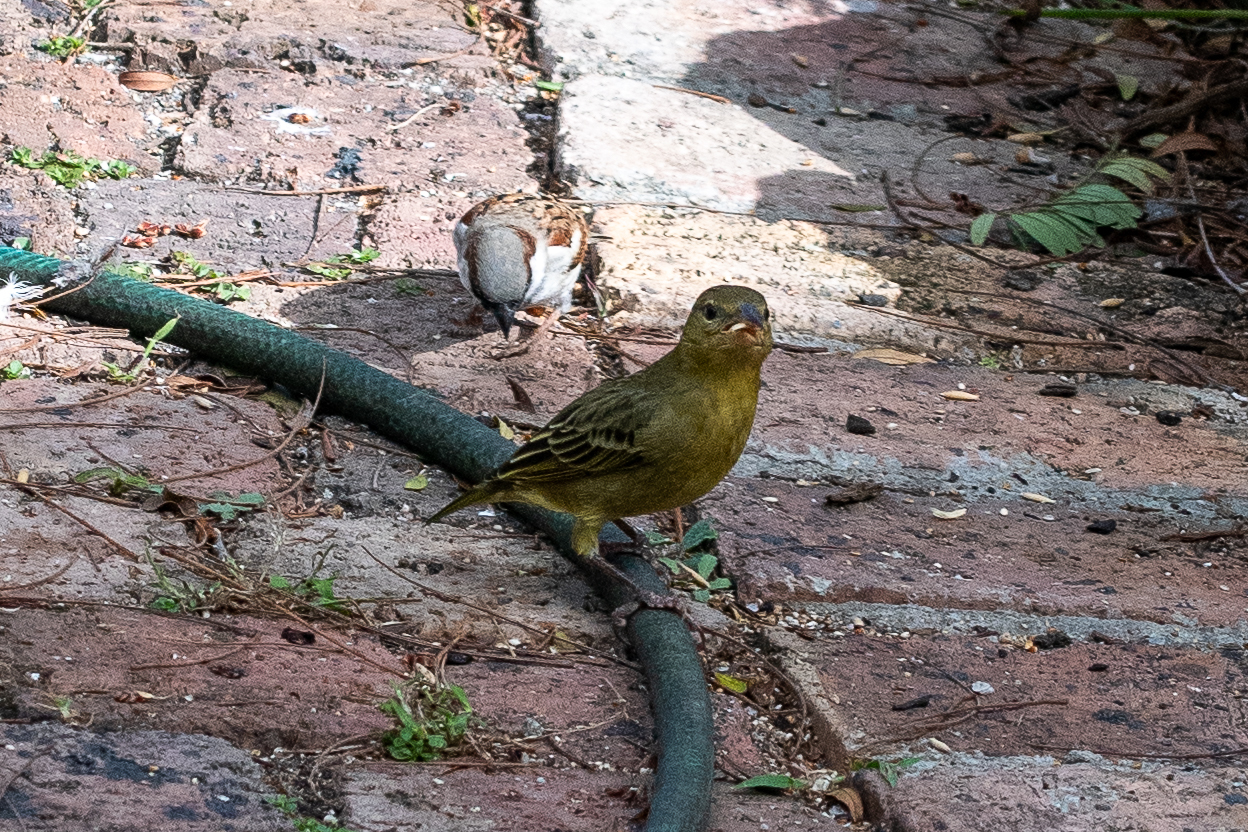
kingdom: Animalia
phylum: Chordata
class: Aves
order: Passeriformes
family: Ploceidae
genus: Ploceus
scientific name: Ploceus capensis
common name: Cape weaver
